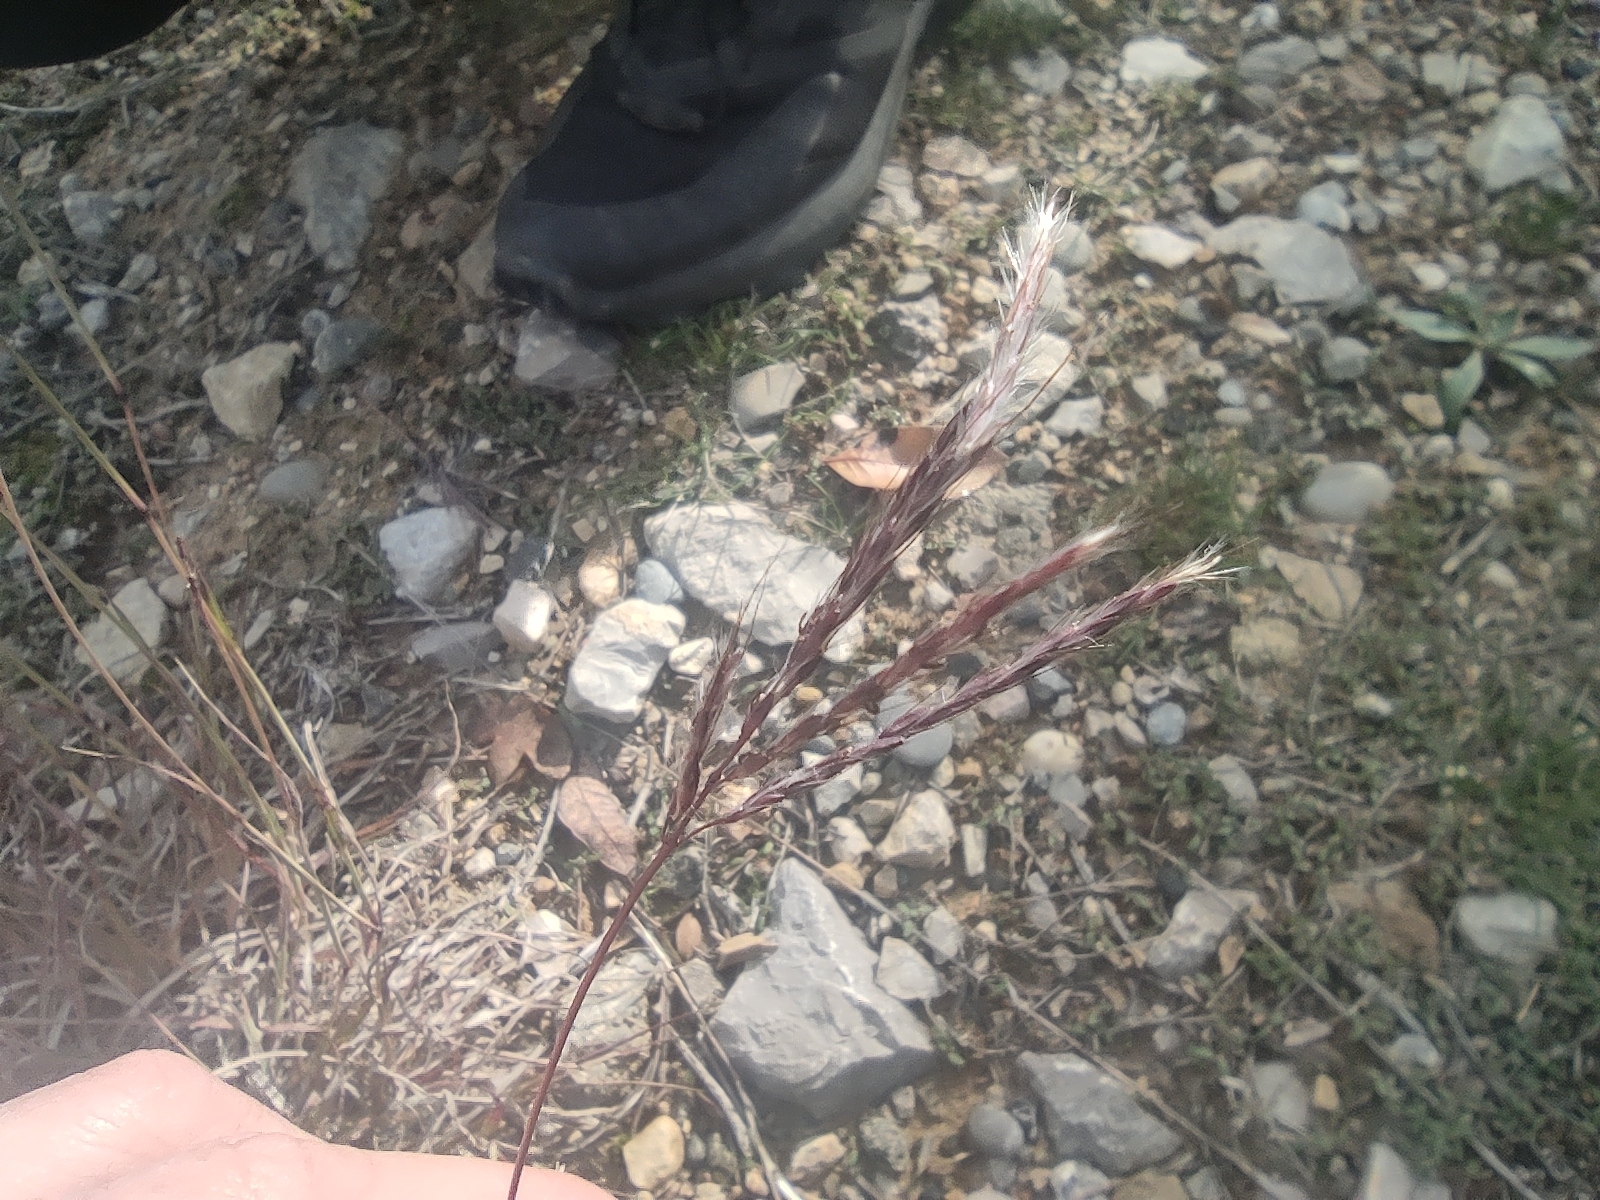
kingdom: Plantae
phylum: Tracheophyta
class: Liliopsida
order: Poales
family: Poaceae
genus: Bothriochloa
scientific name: Bothriochloa ischaemum
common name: Yellow bluestem
